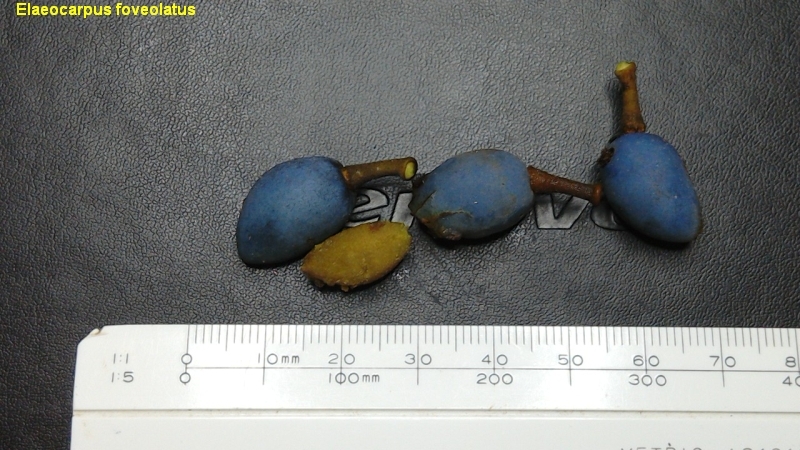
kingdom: Plantae
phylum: Tracheophyta
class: Magnoliopsida
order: Oxalidales
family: Elaeocarpaceae
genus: Elaeocarpus
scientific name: Elaeocarpus foveolatus
